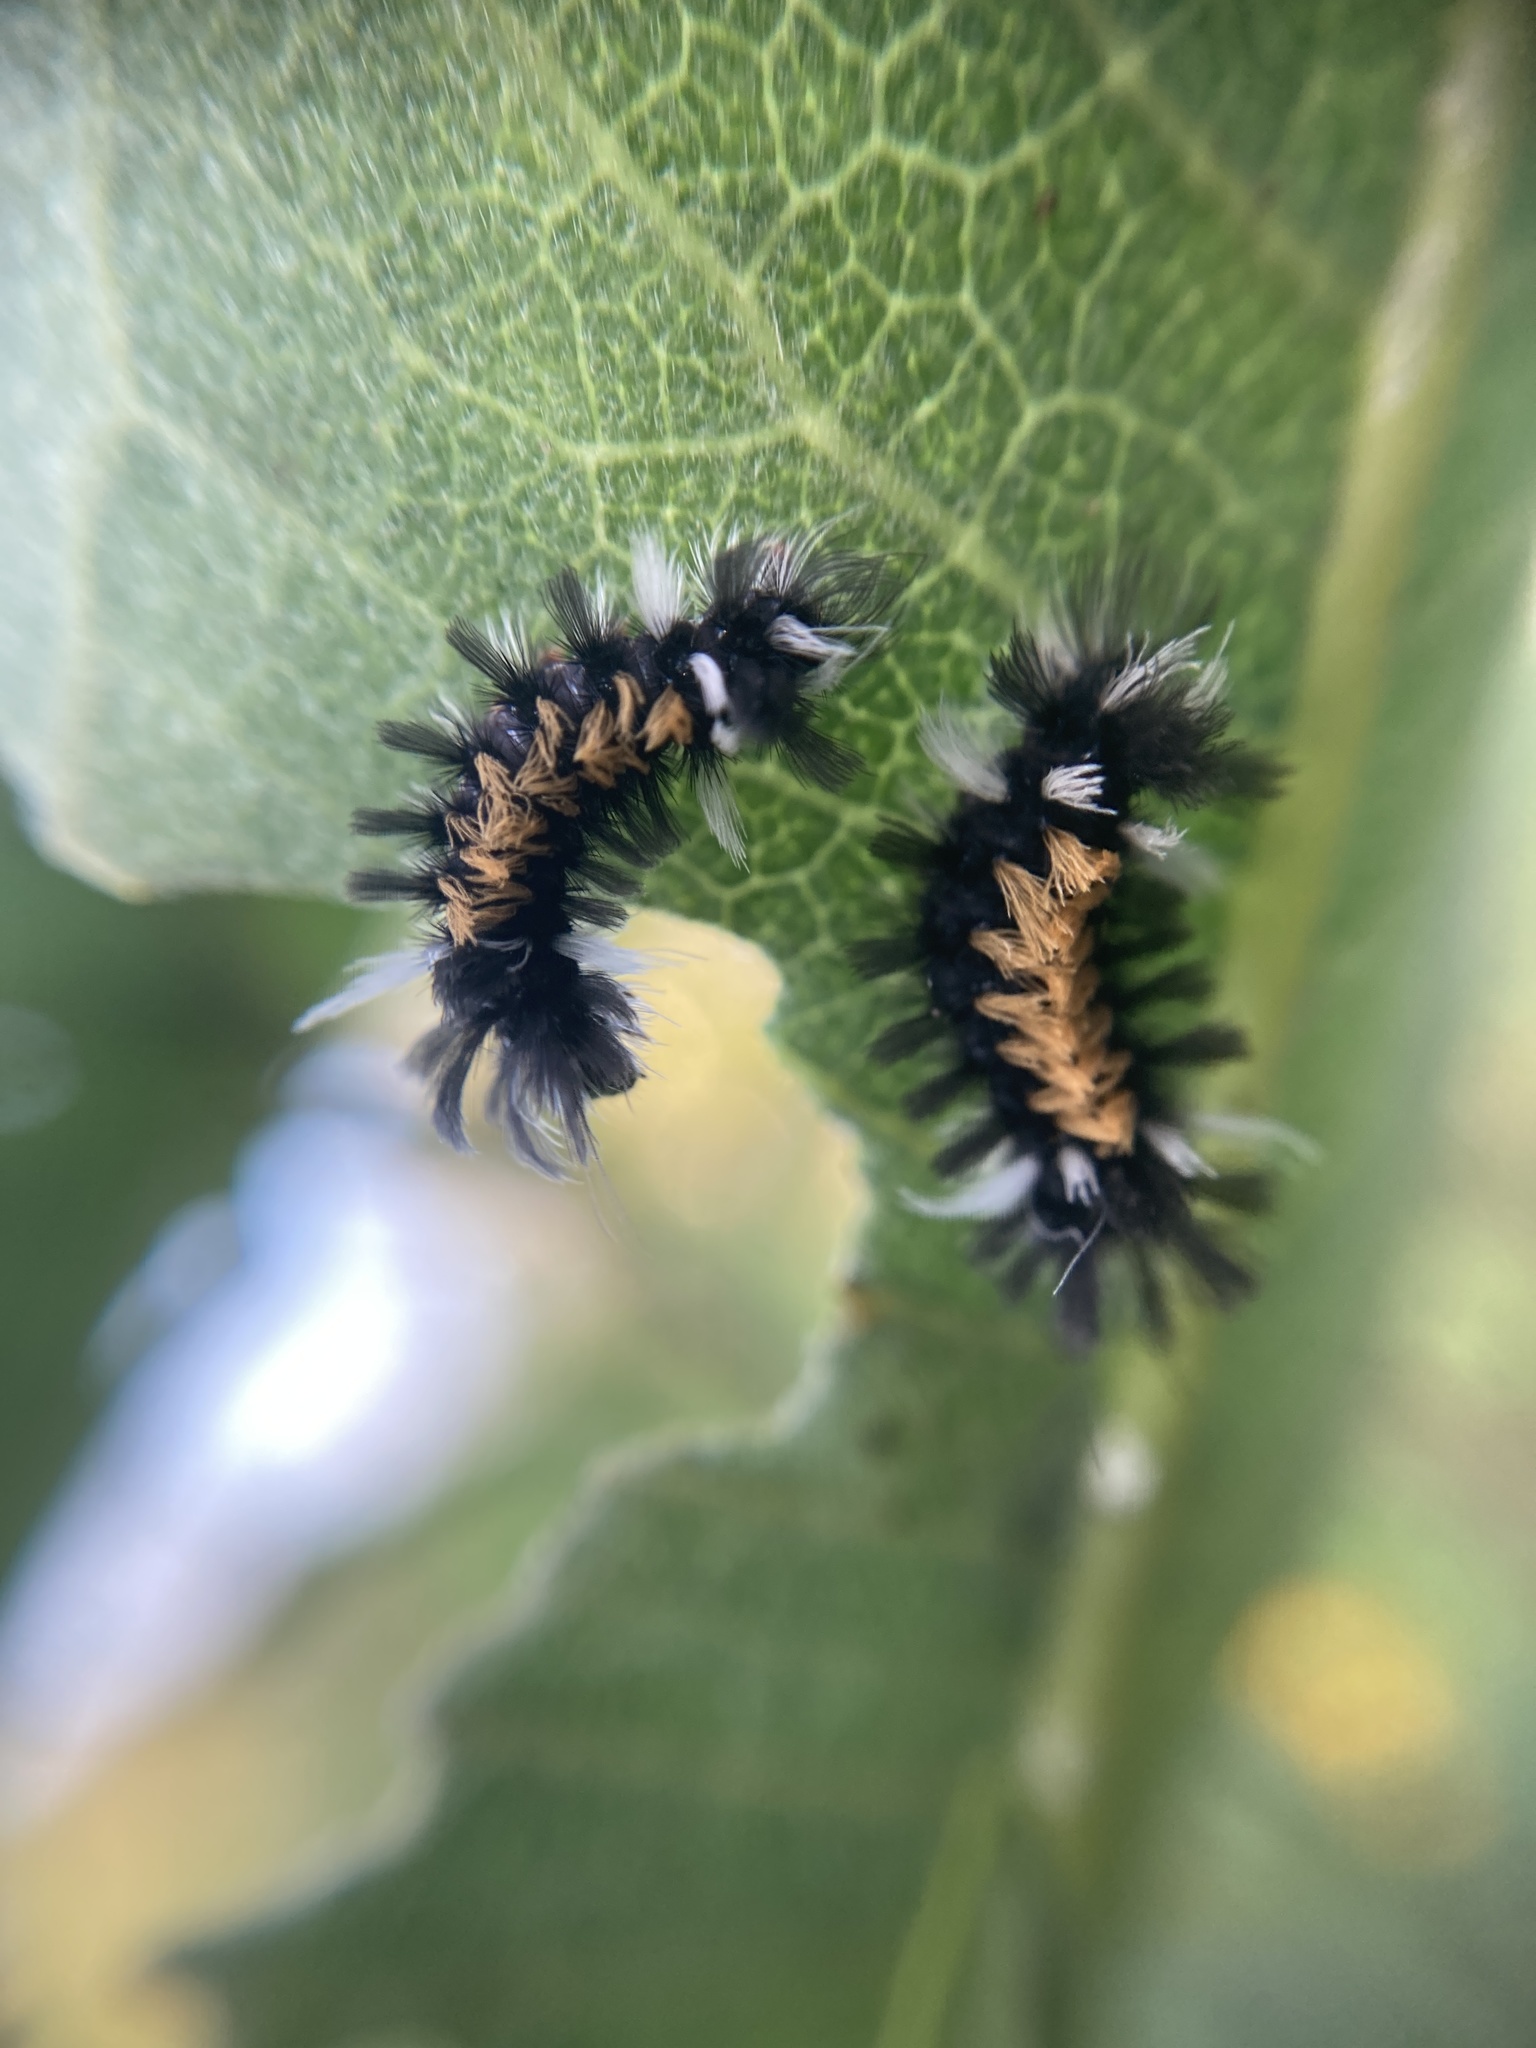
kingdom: Animalia
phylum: Arthropoda
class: Insecta
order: Lepidoptera
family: Erebidae
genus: Euchaetes
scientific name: Euchaetes egle
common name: Milkweed tussock moth
